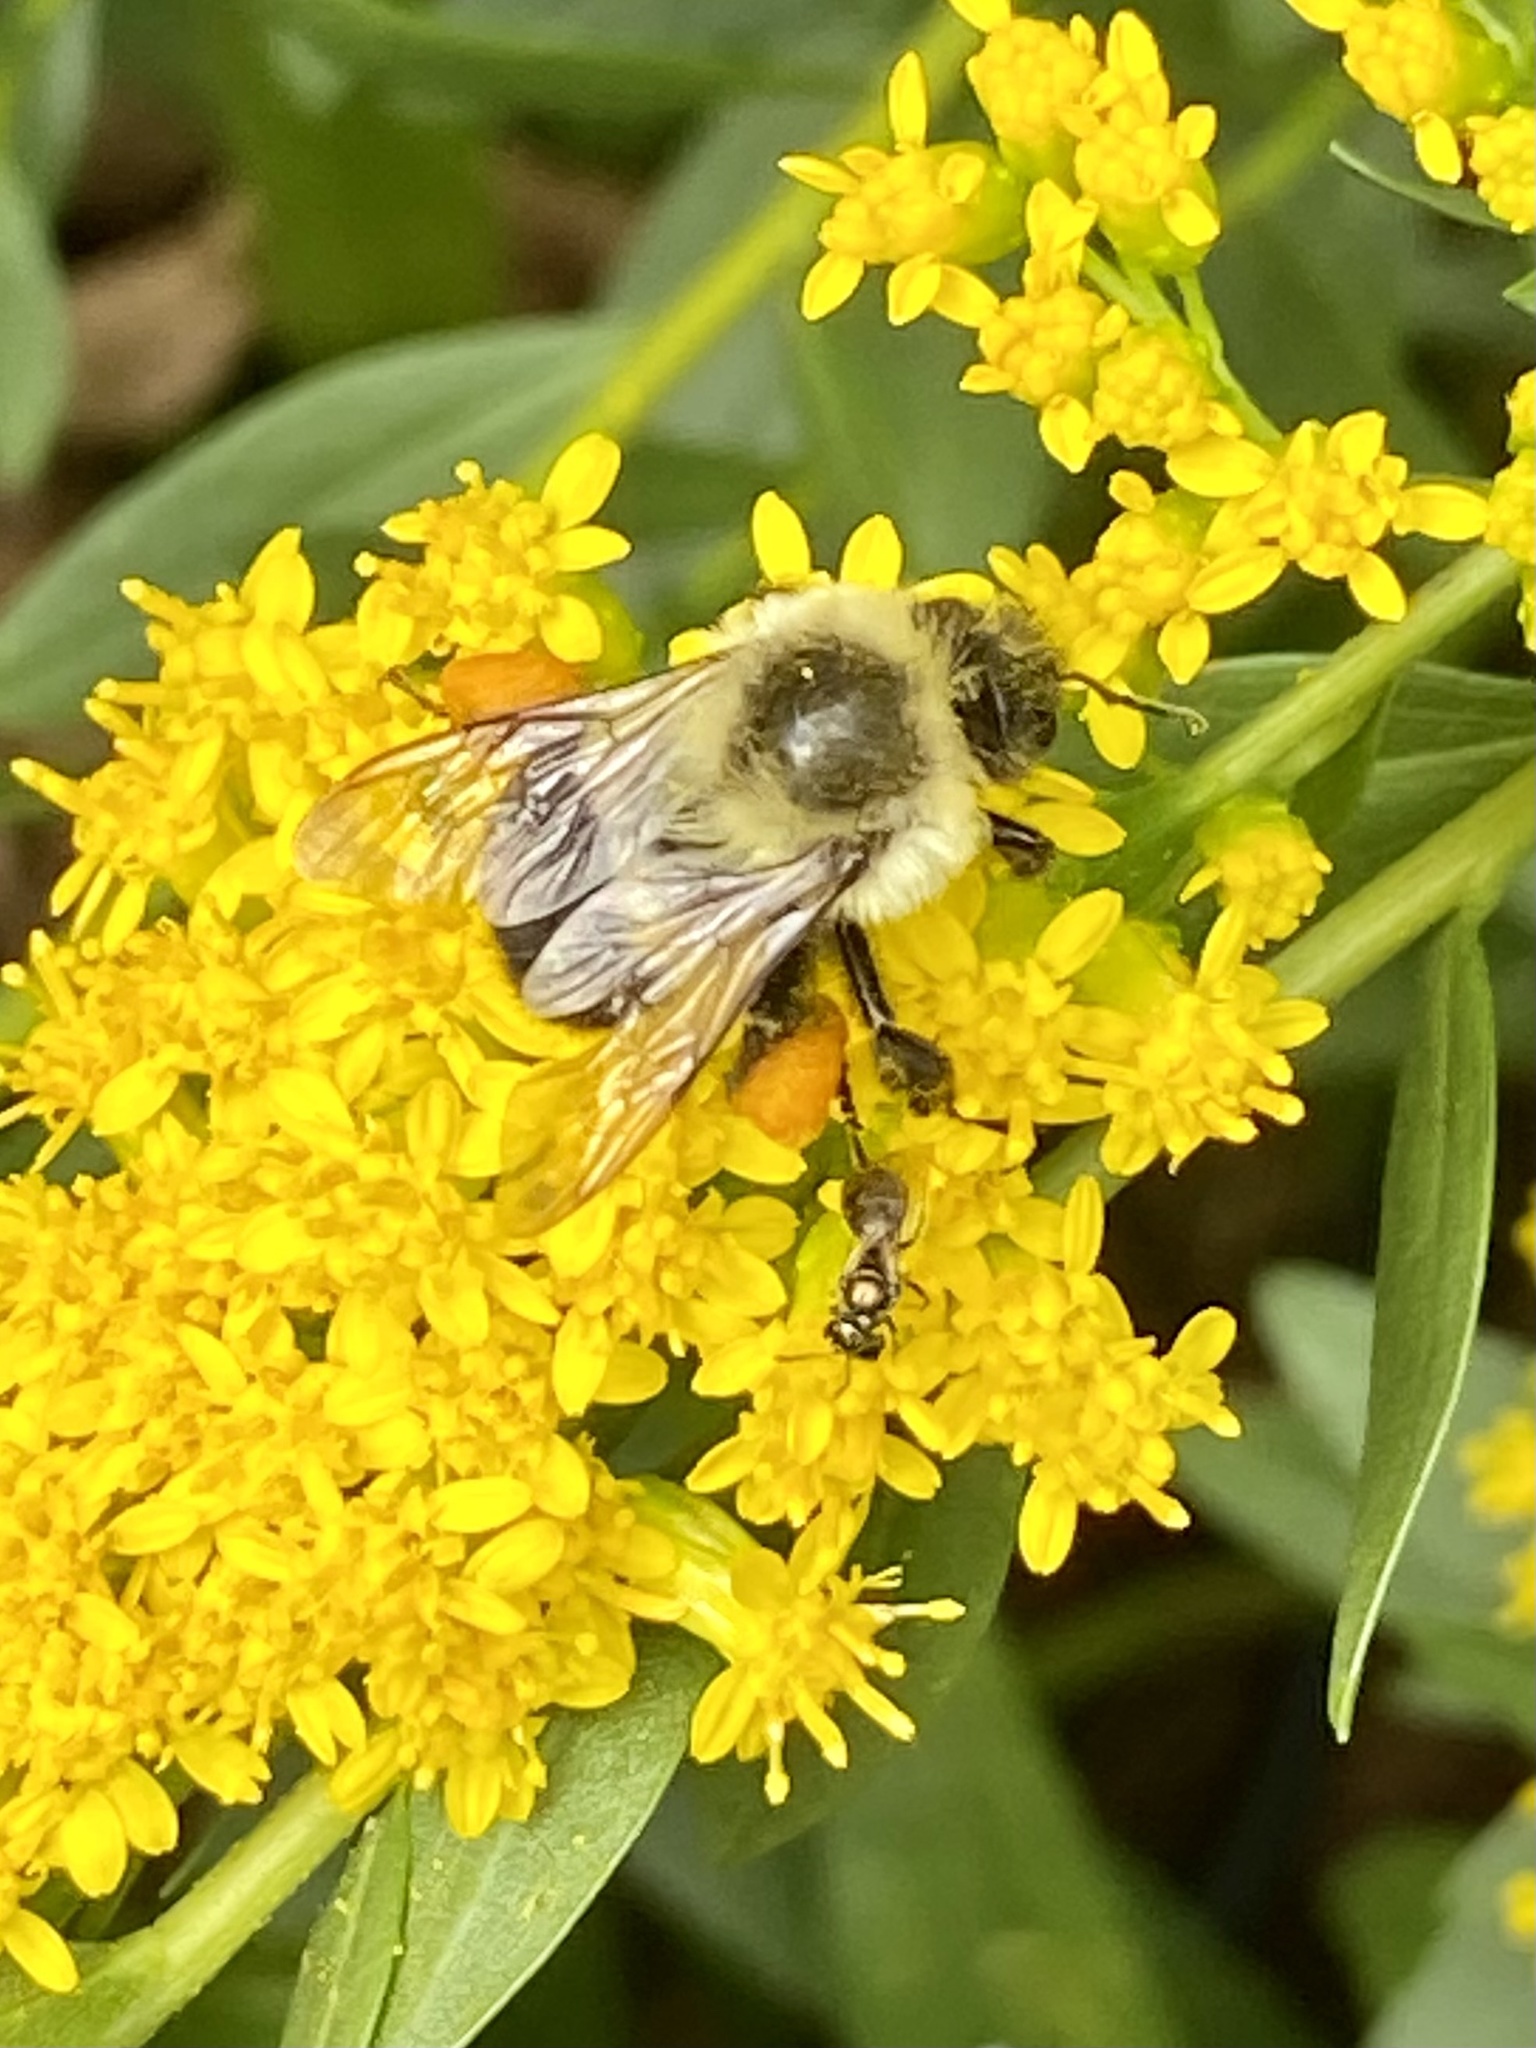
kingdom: Animalia
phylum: Arthropoda
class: Insecta
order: Hymenoptera
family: Apidae
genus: Bombus
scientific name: Bombus impatiens
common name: Common eastern bumble bee
